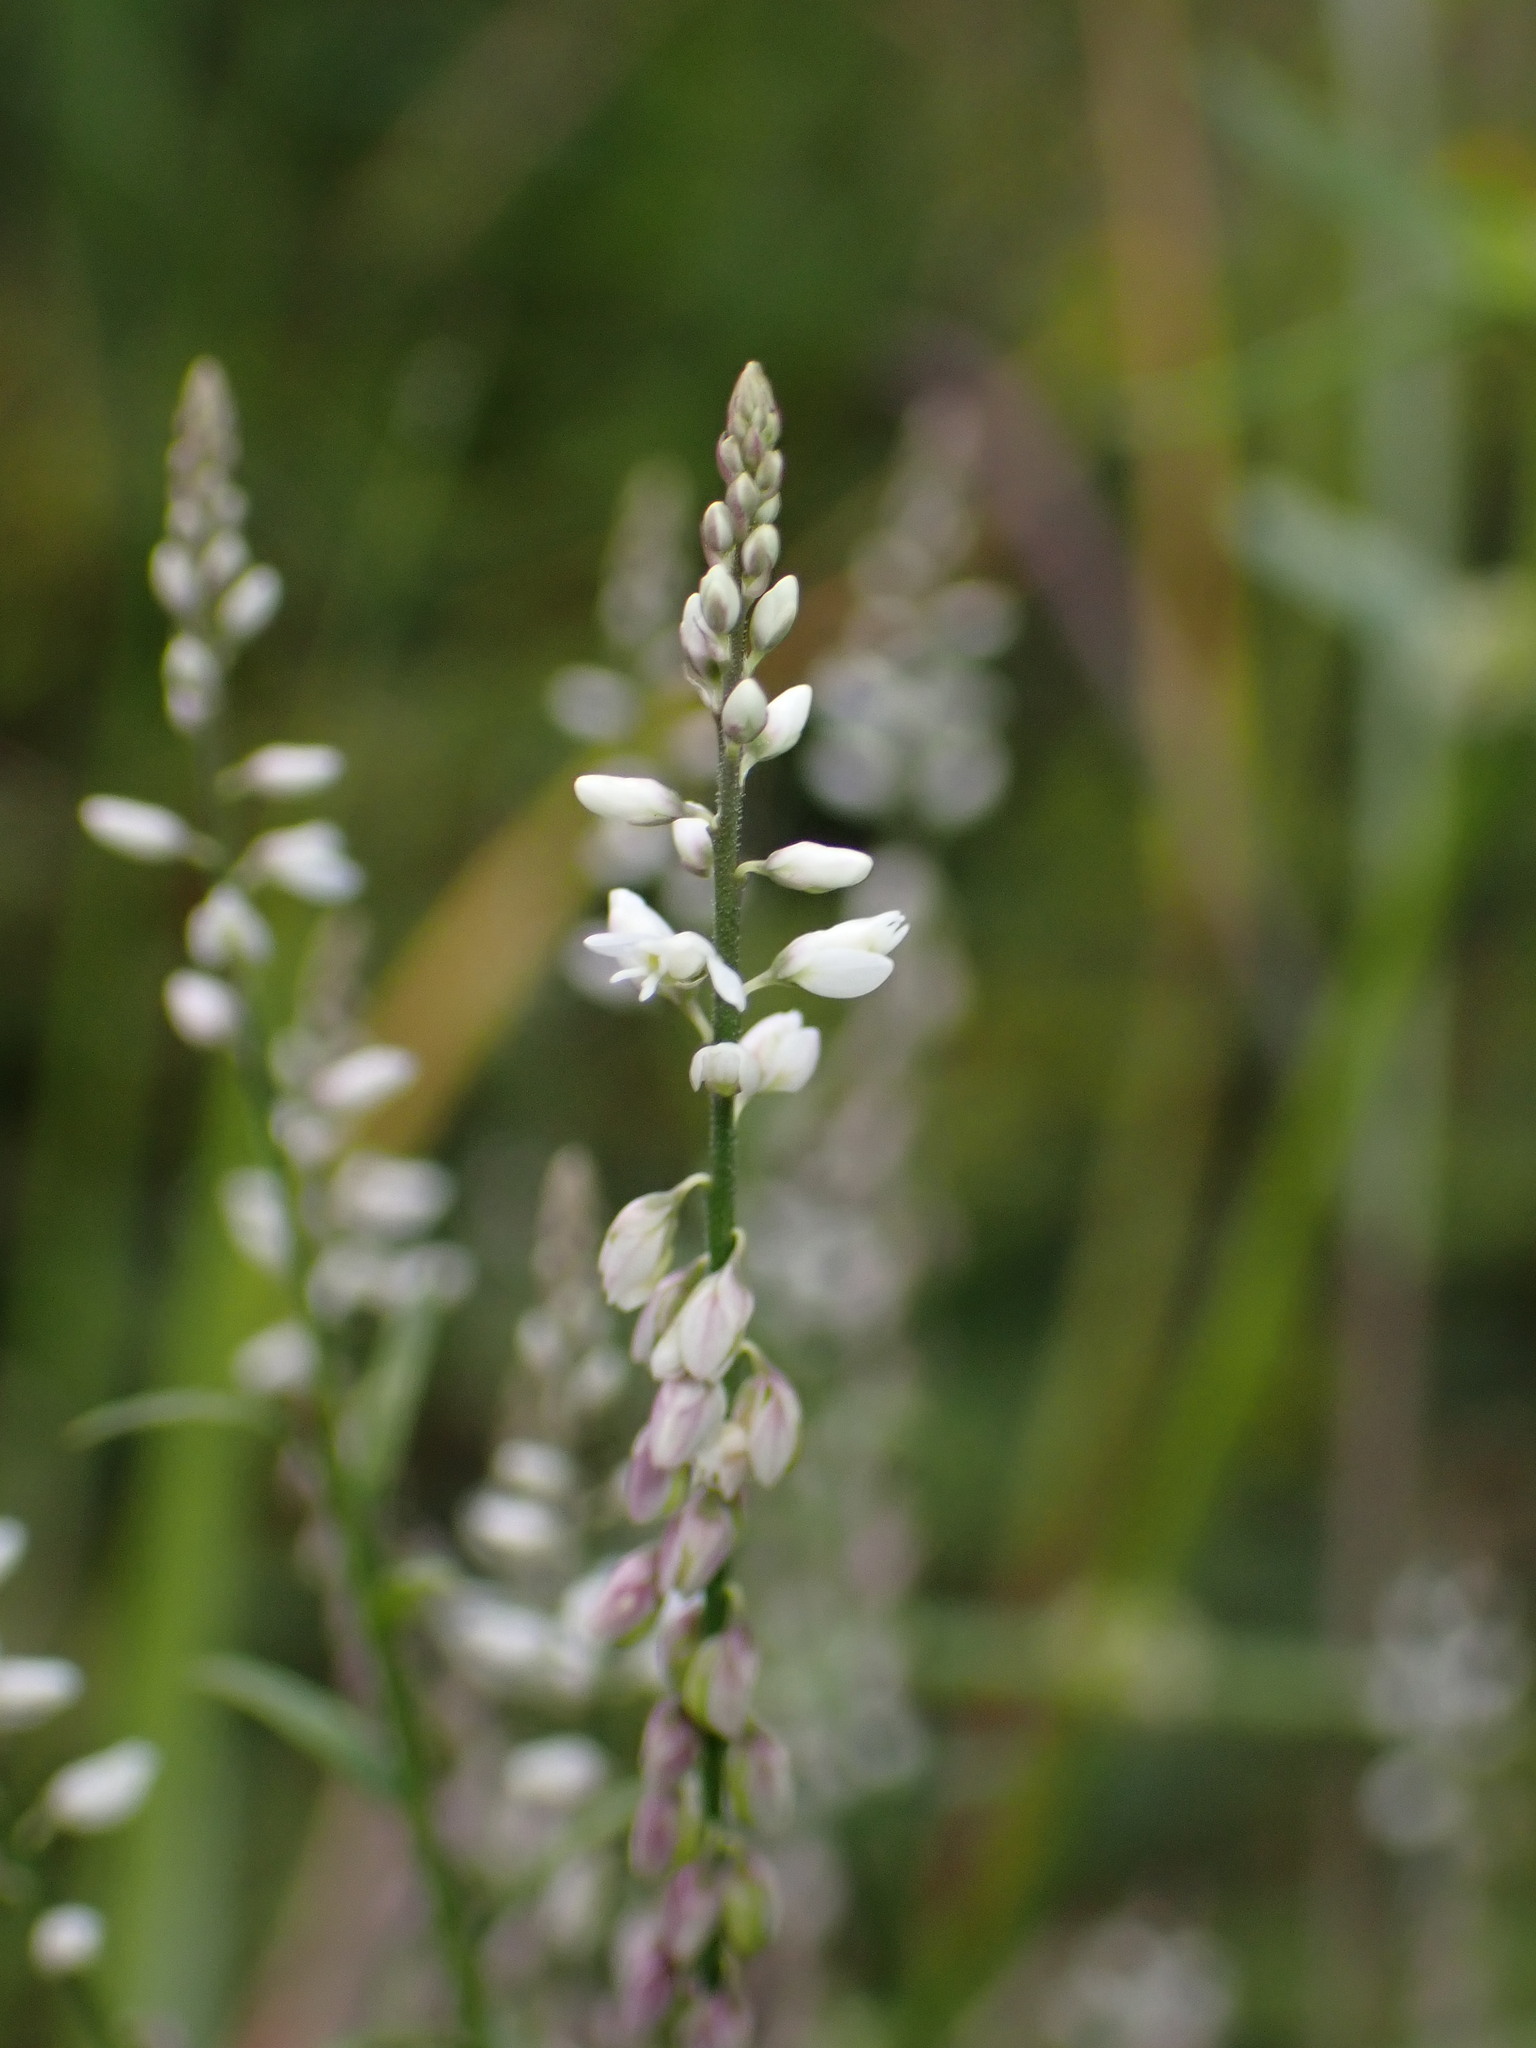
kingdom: Plantae
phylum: Tracheophyta
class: Magnoliopsida
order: Fabales
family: Polygalaceae
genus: Polygala
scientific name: Polygala paniculata
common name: Orosne
